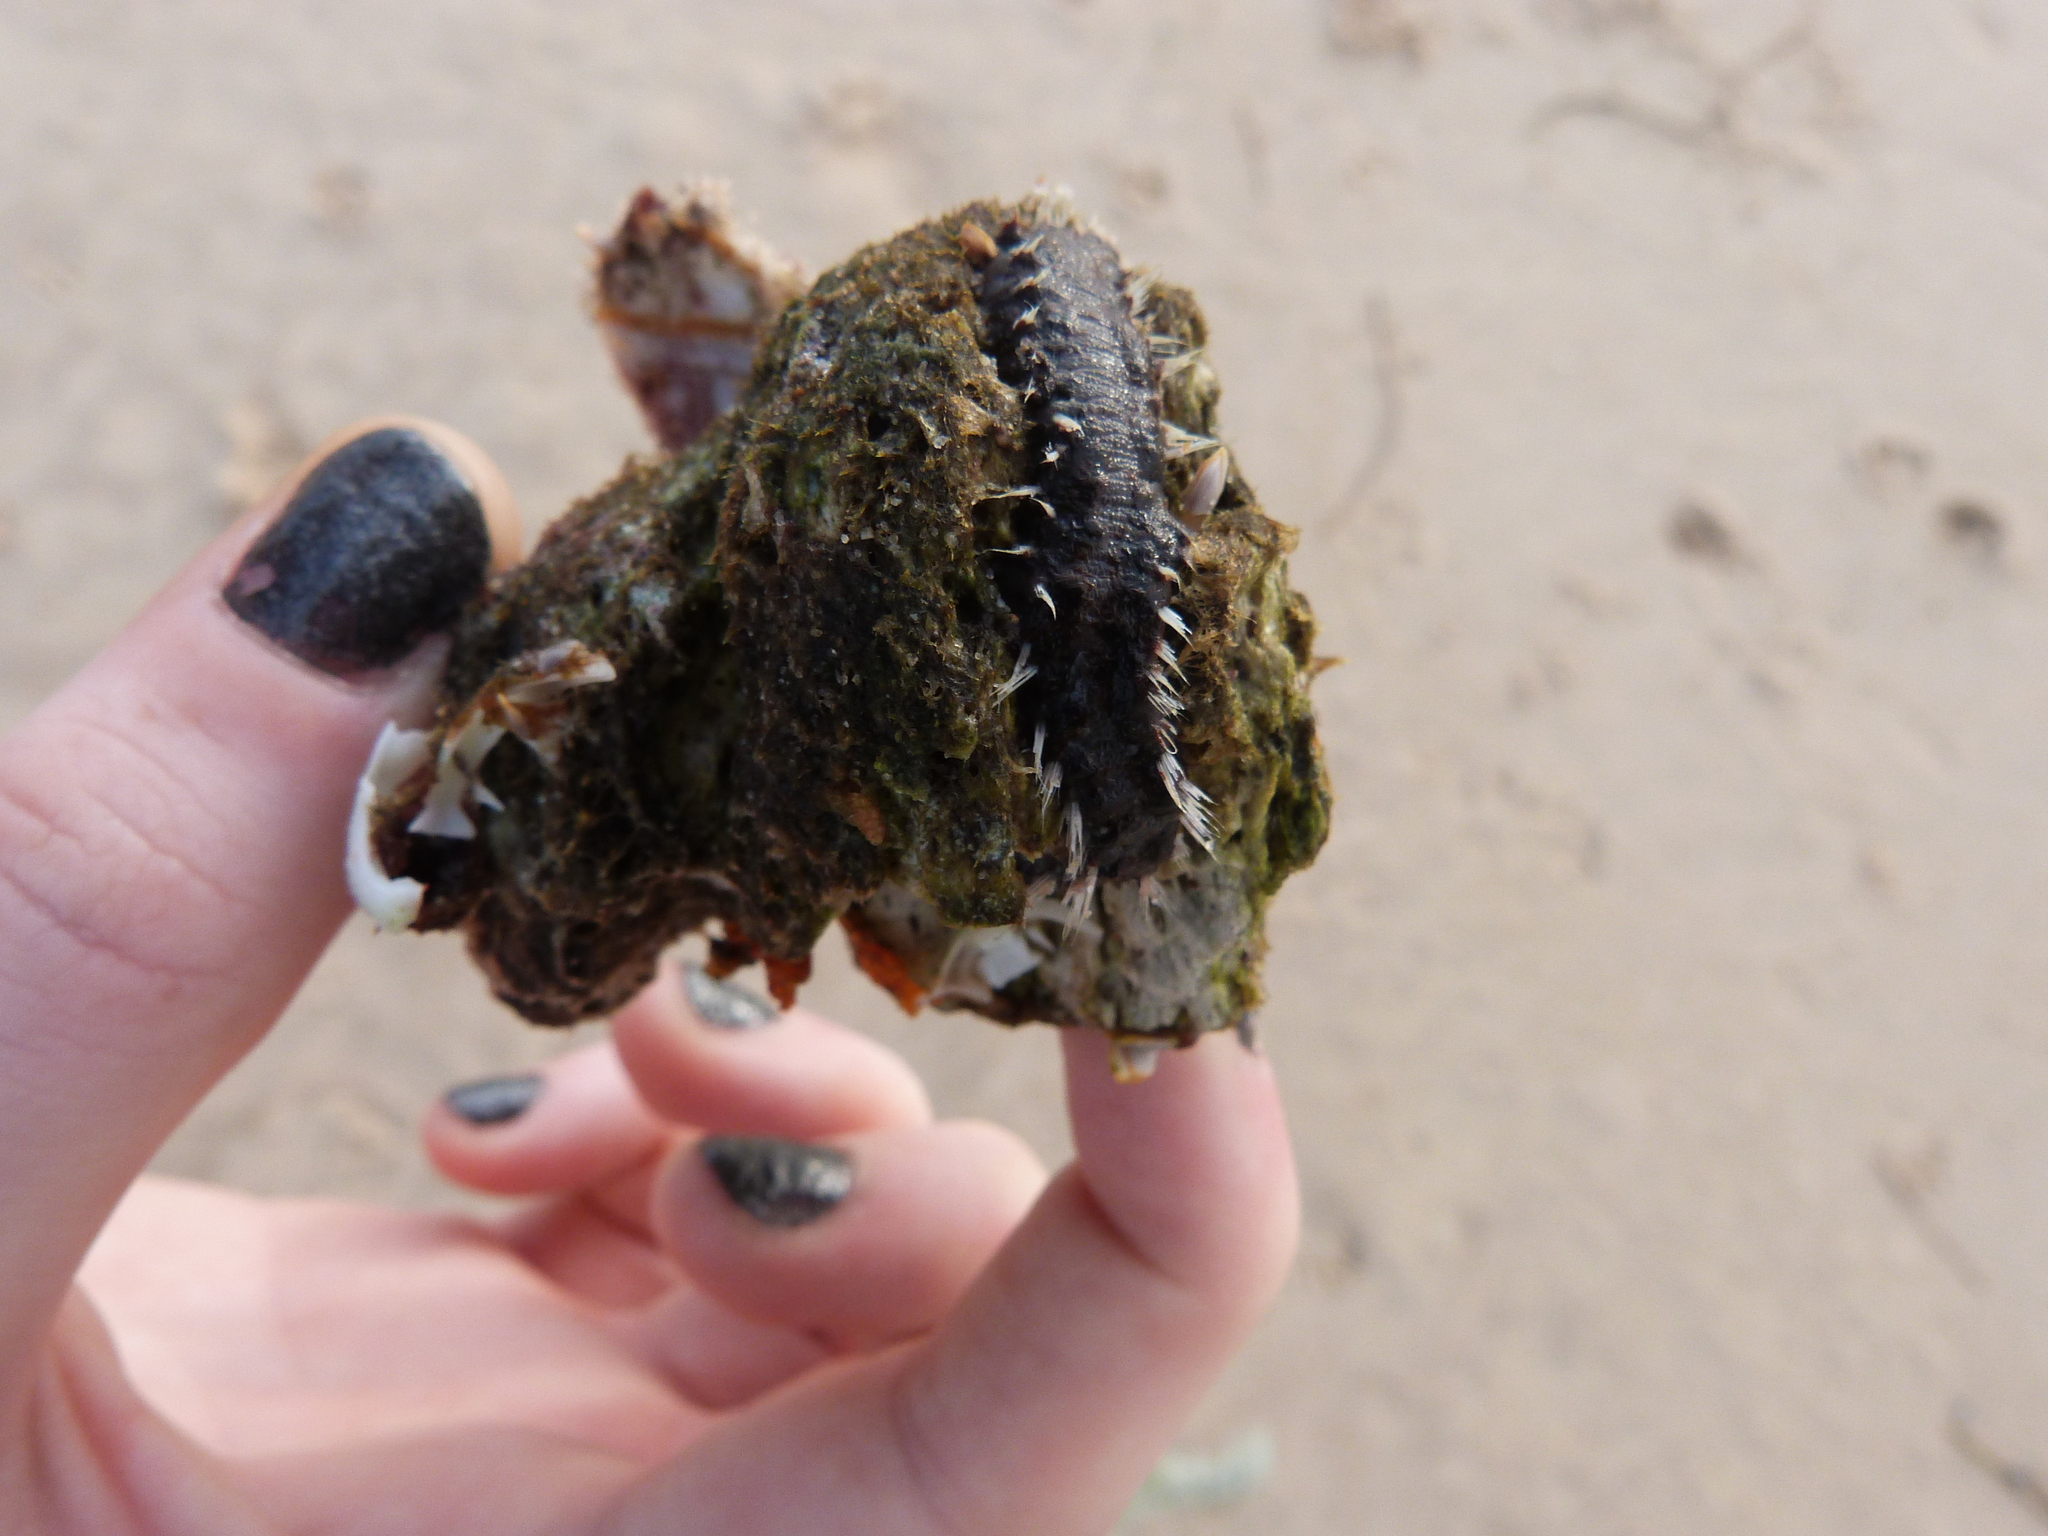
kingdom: Animalia
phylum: Annelida
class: Polychaeta
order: Amphinomida
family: Amphinomidae
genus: Amphinome
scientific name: Amphinome rostrata
